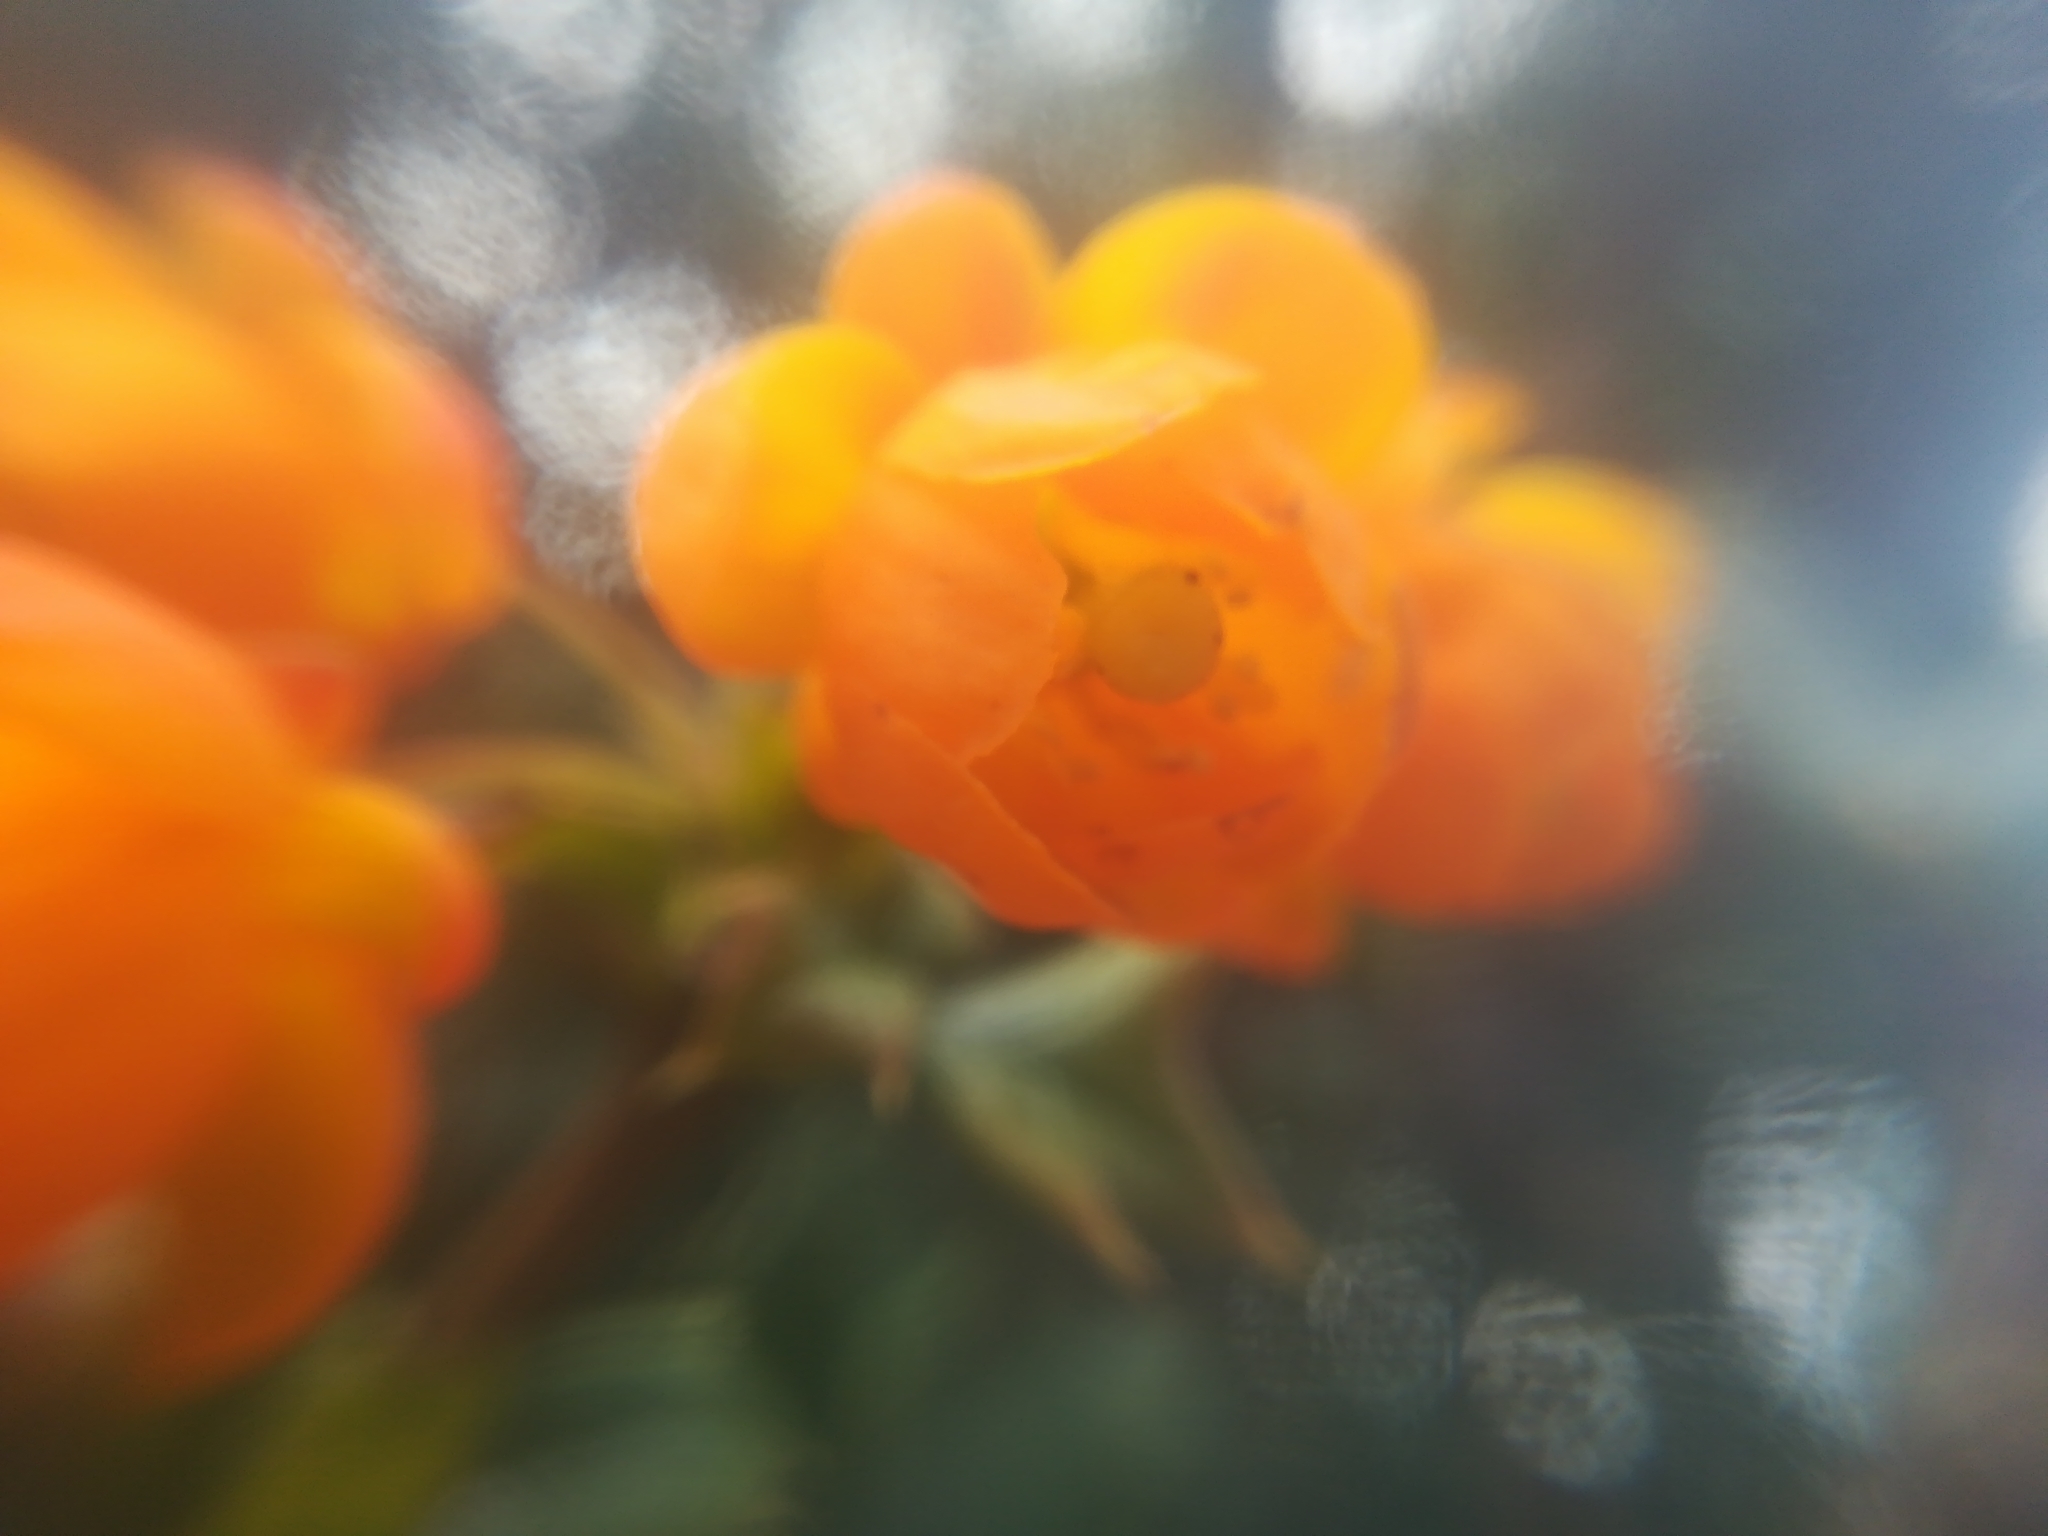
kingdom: Plantae
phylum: Tracheophyta
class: Magnoliopsida
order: Ranunculales
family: Berberidaceae
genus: Berberis
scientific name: Berberis ilicifolia
